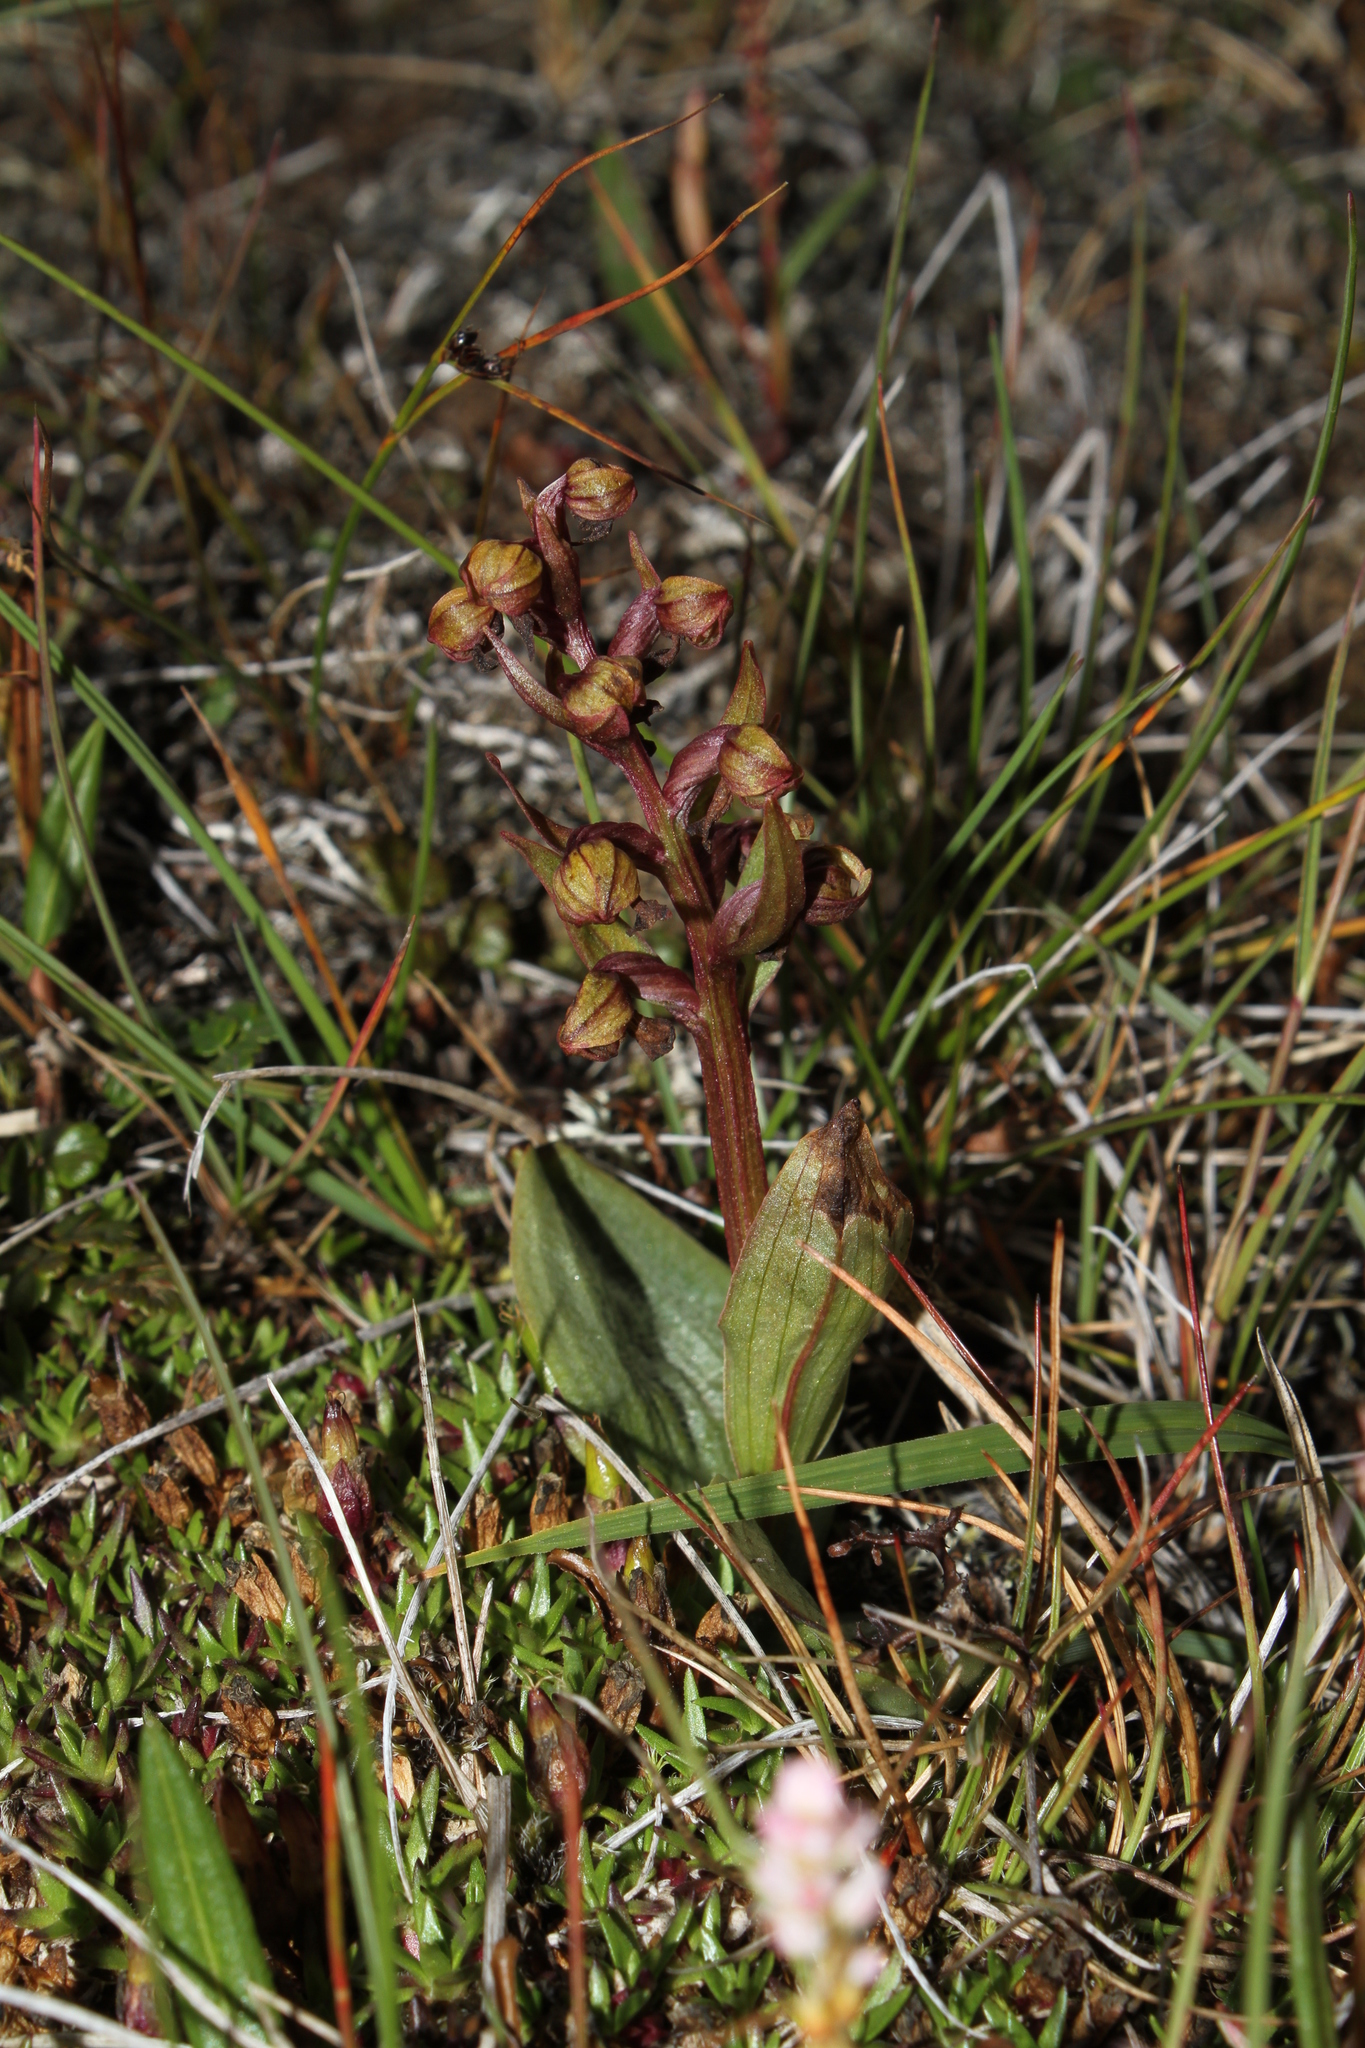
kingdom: Plantae
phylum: Tracheophyta
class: Liliopsida
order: Asparagales
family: Orchidaceae
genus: Dactylorhiza
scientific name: Dactylorhiza viridis
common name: Longbract frog orchid
